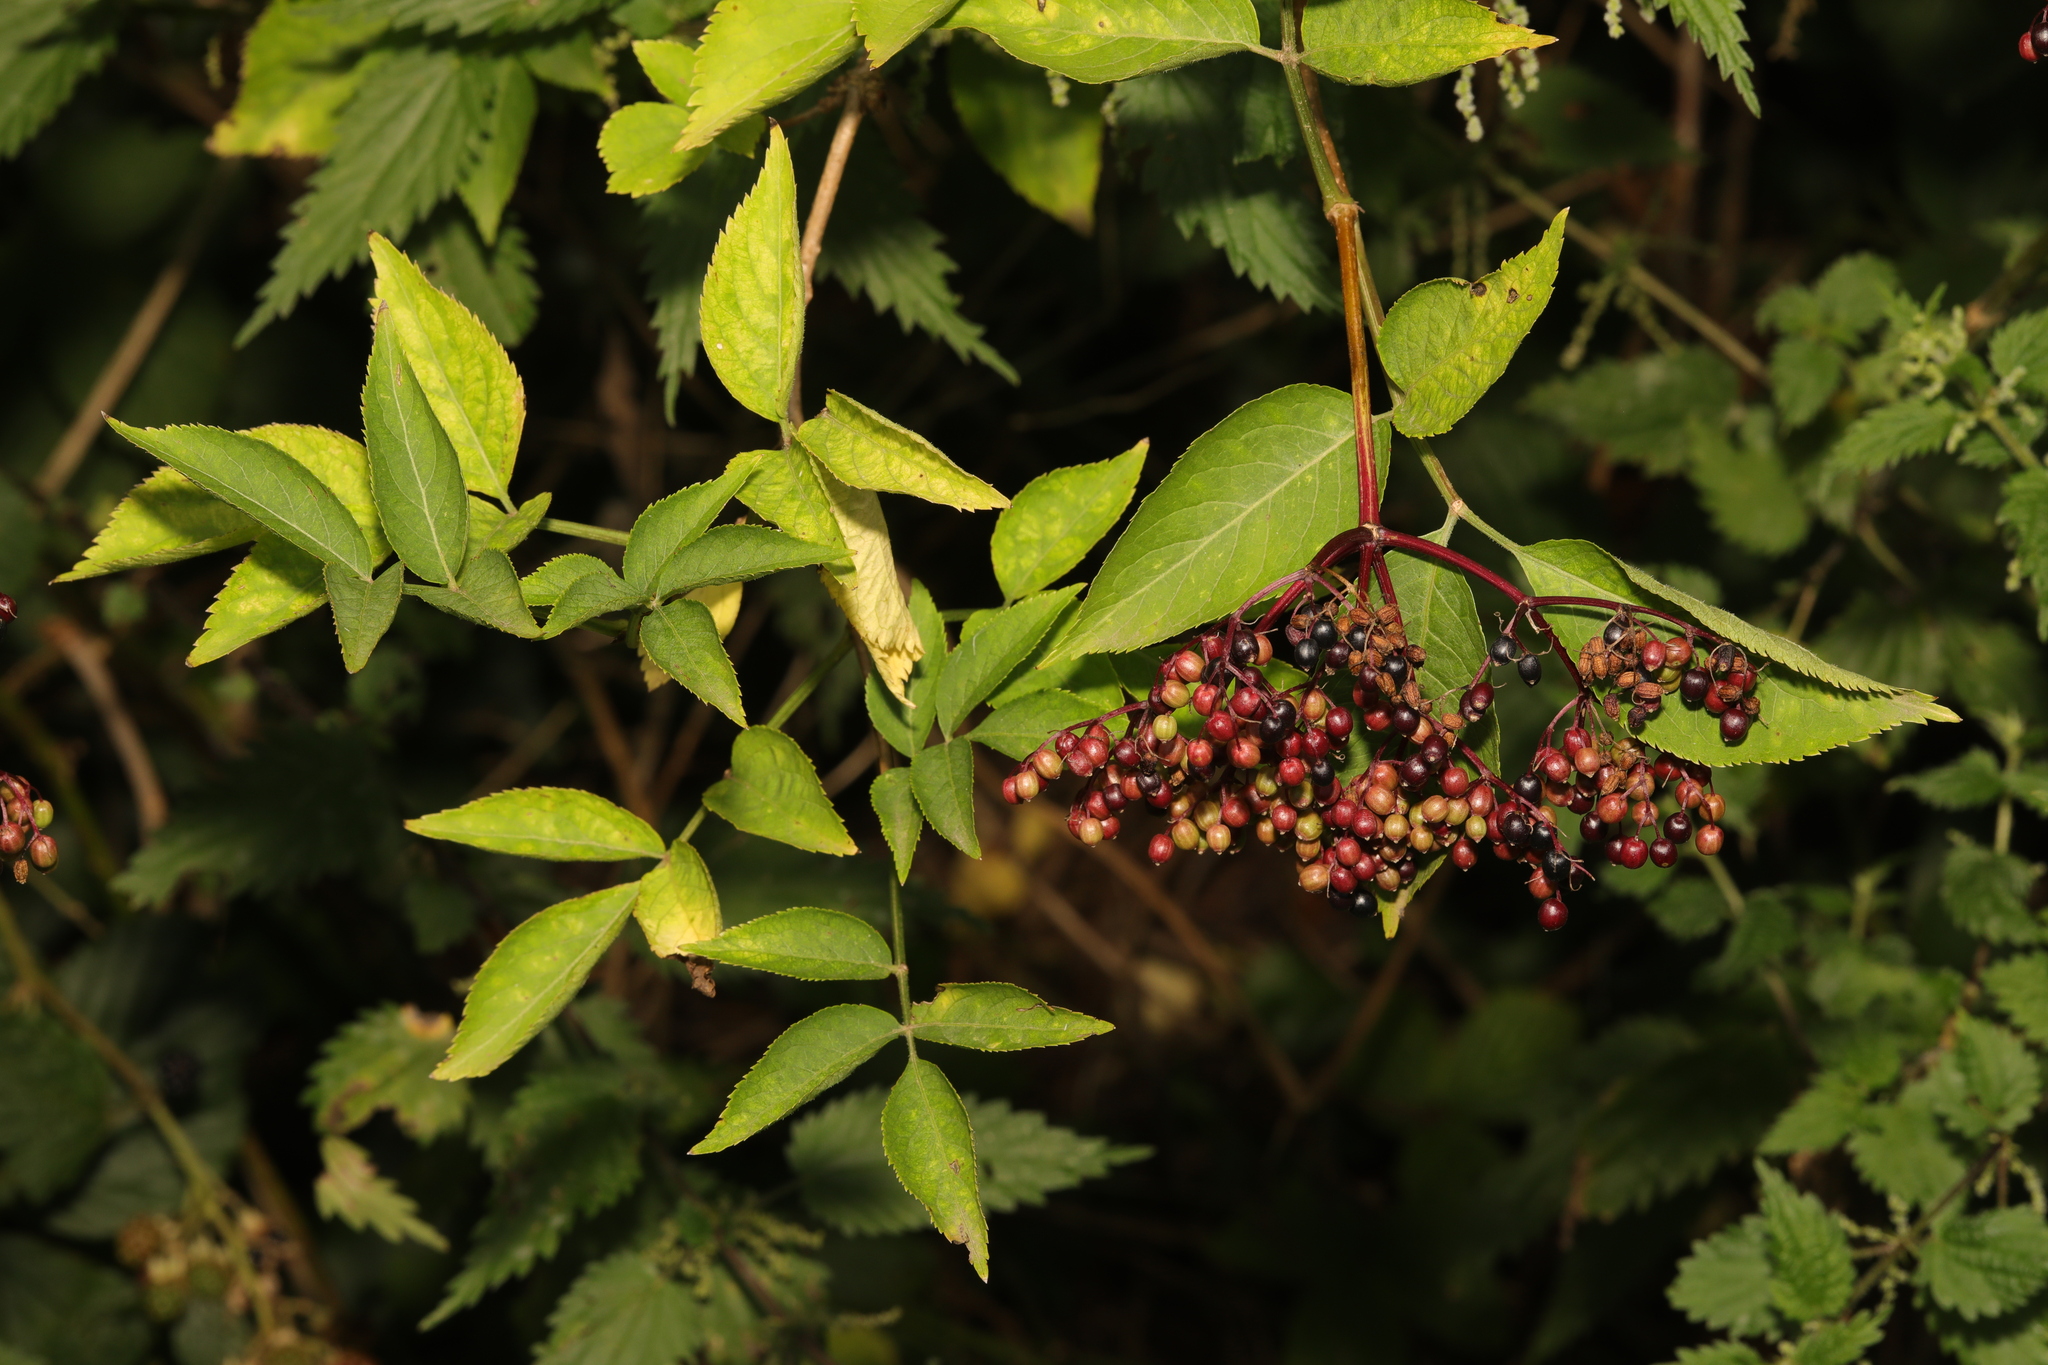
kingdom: Plantae
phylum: Tracheophyta
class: Magnoliopsida
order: Dipsacales
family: Viburnaceae
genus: Sambucus
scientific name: Sambucus nigra
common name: Elder
